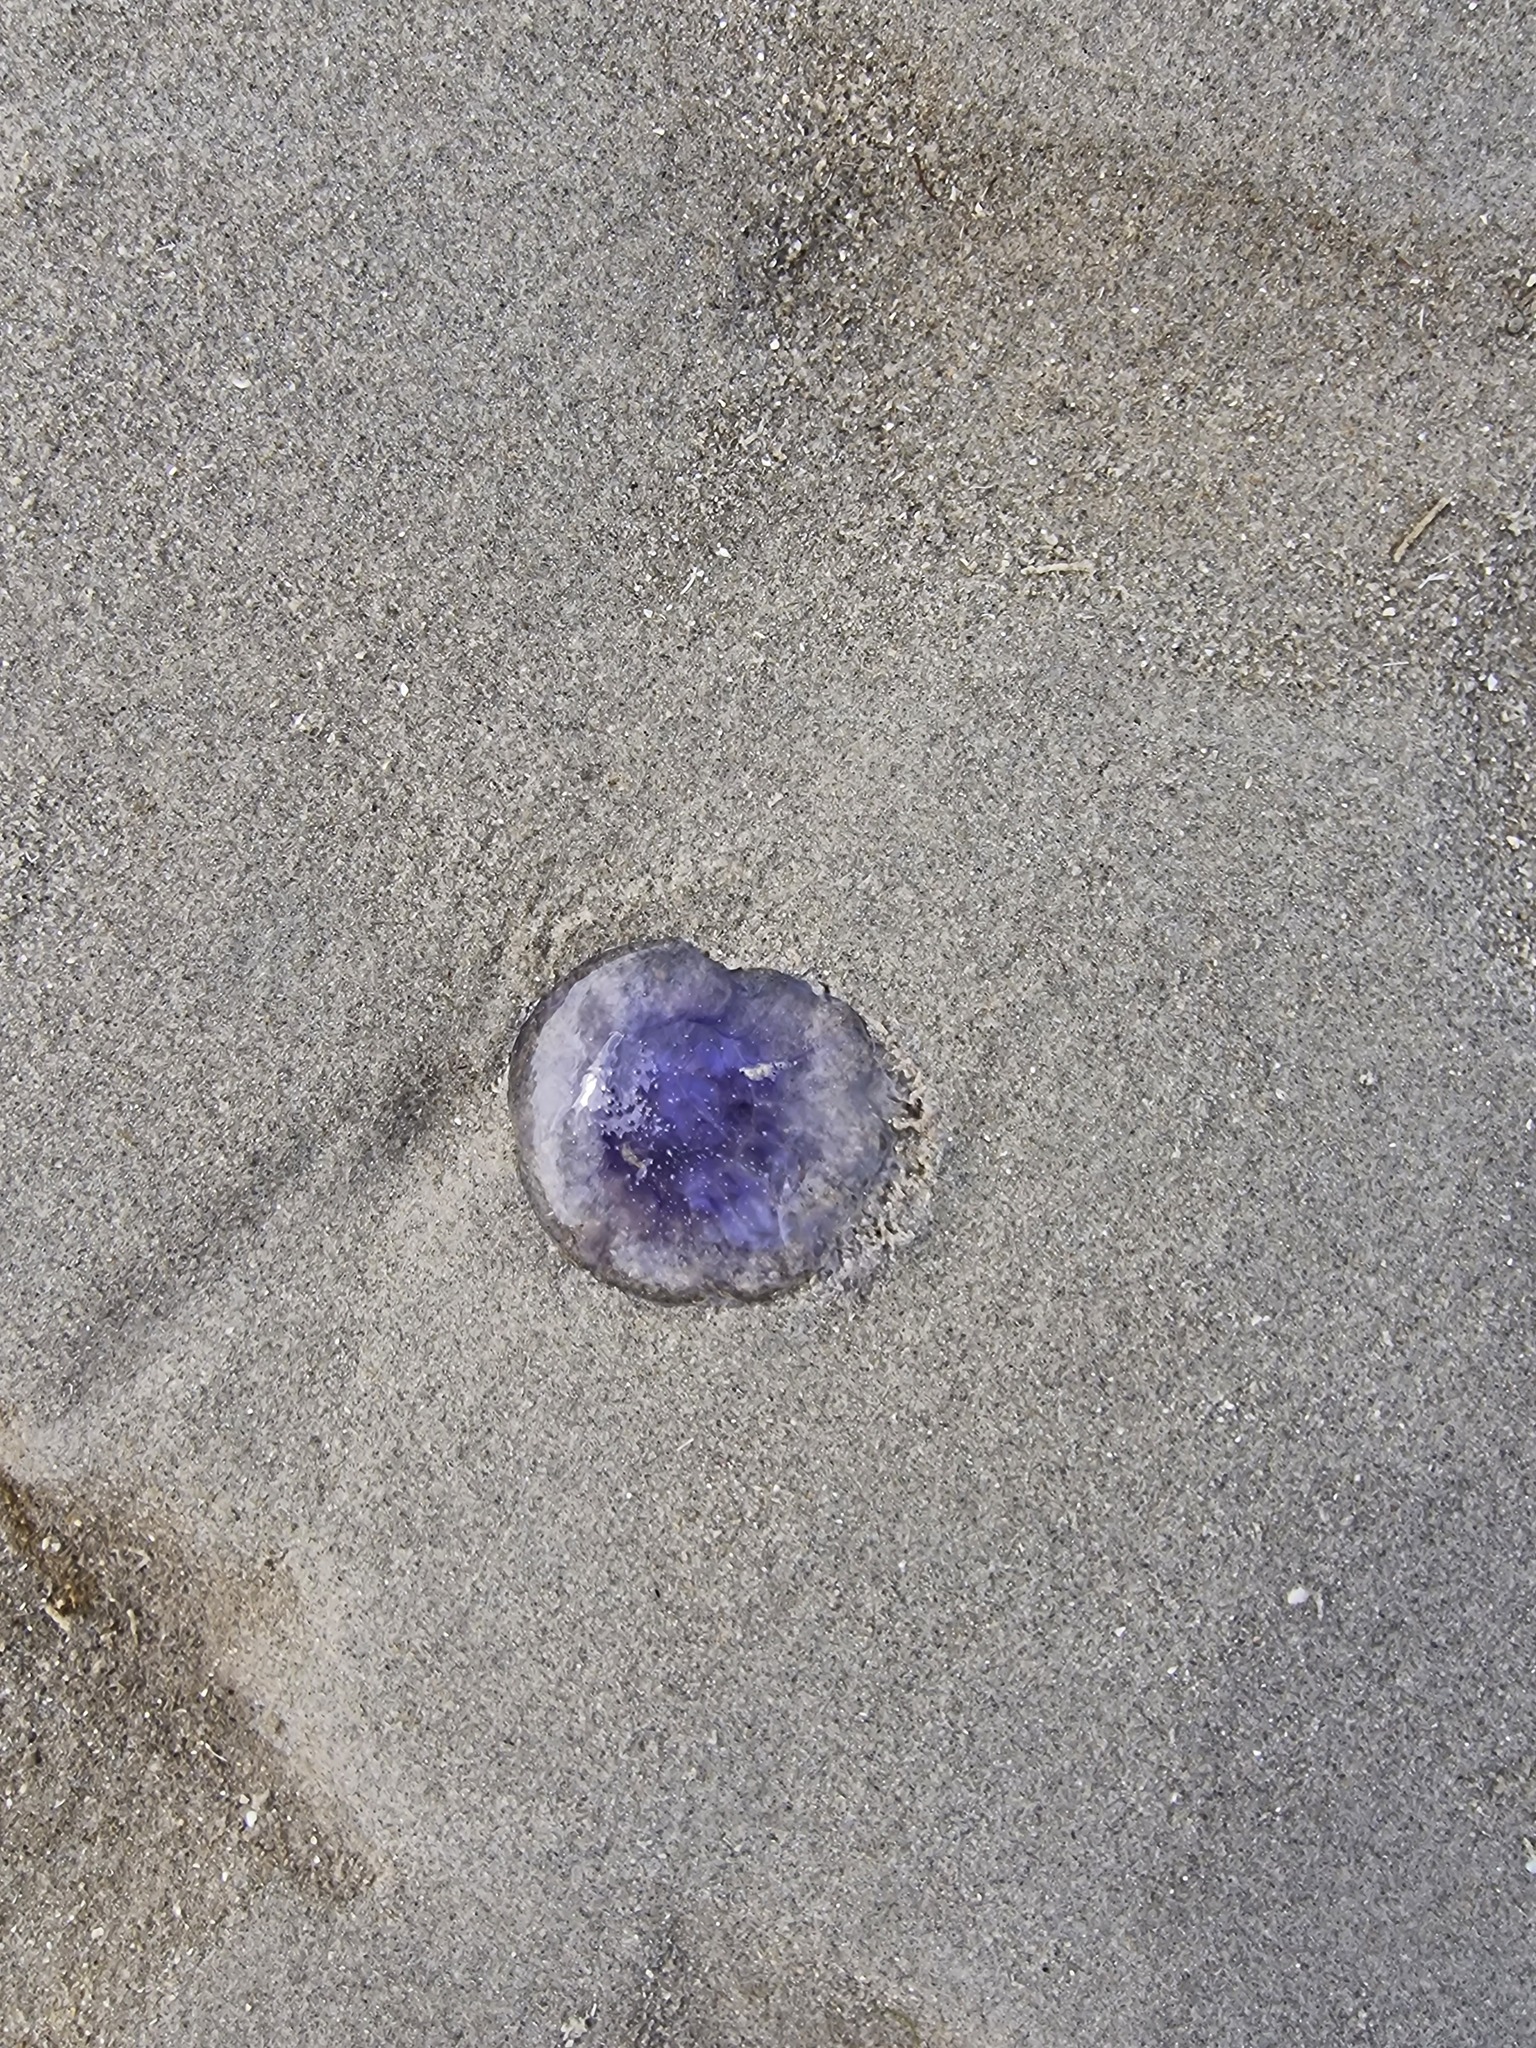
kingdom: Animalia
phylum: Cnidaria
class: Scyphozoa
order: Semaeostomeae
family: Cyaneidae
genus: Cyanea
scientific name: Cyanea lamarckii
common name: Blue jellyfish
